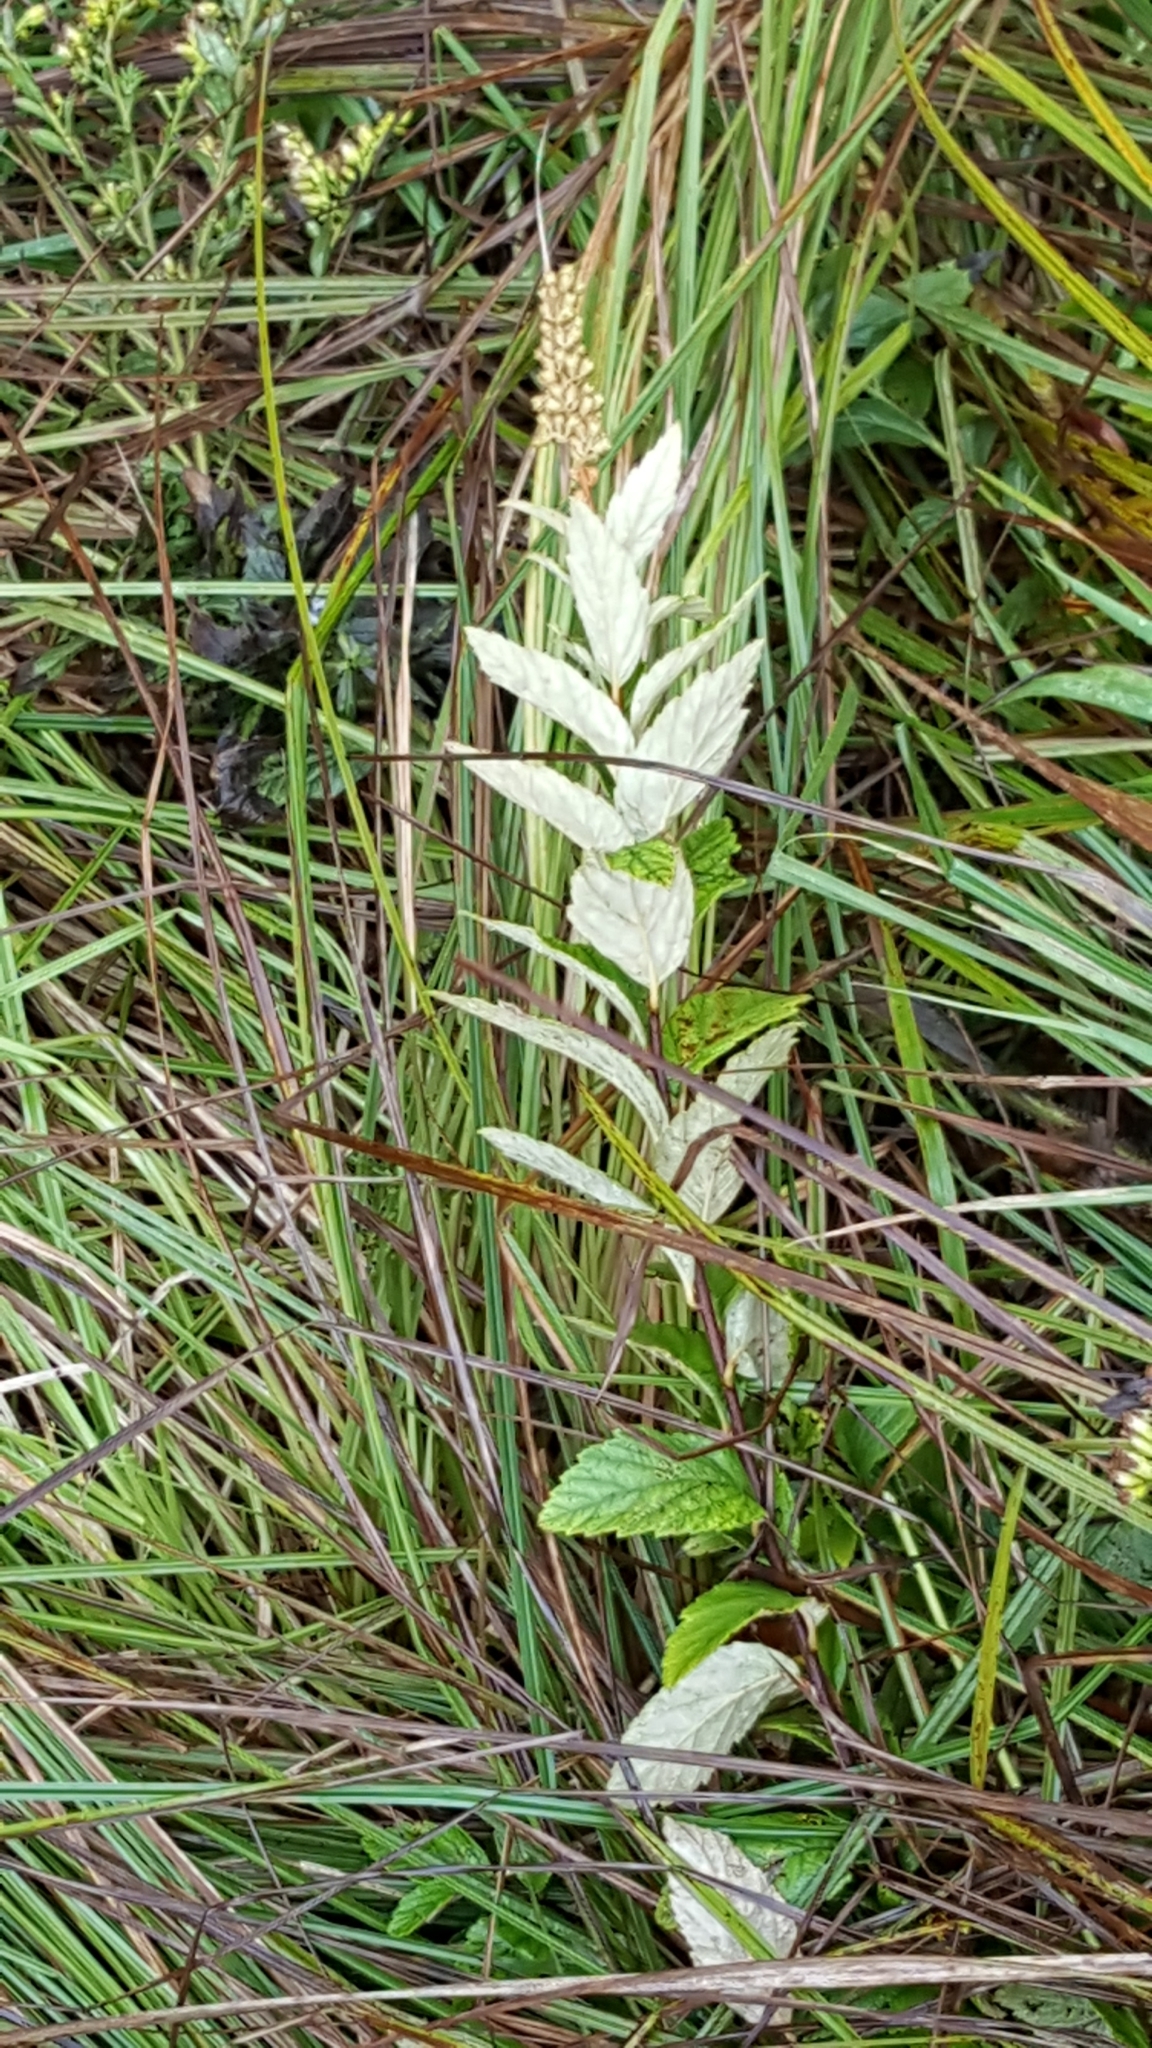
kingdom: Plantae
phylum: Tracheophyta
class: Magnoliopsida
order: Rosales
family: Rosaceae
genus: Spiraea
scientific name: Spiraea tomentosa
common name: Hardhack
